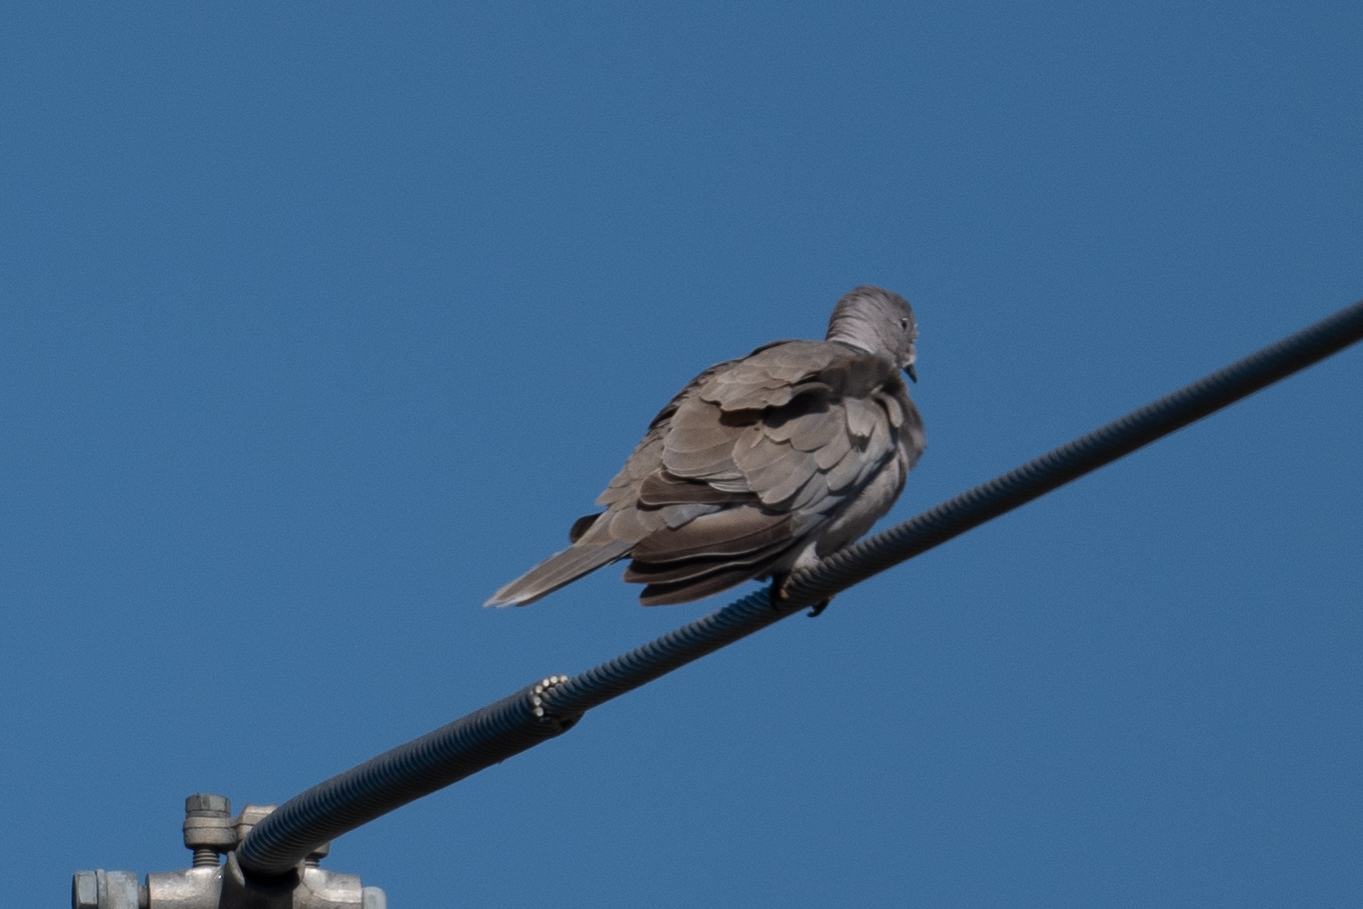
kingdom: Animalia
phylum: Chordata
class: Aves
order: Columbiformes
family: Columbidae
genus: Streptopelia
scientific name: Streptopelia decaocto
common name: Eurasian collared dove
